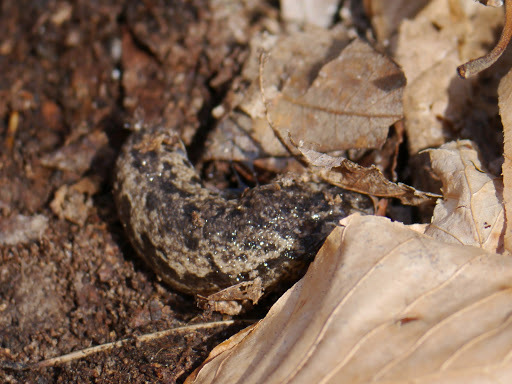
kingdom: Animalia
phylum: Mollusca
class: Gastropoda
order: Stylommatophora
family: Philomycidae
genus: Megapallifera
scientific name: Megapallifera mutabilis
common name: Changeable mantleslug
